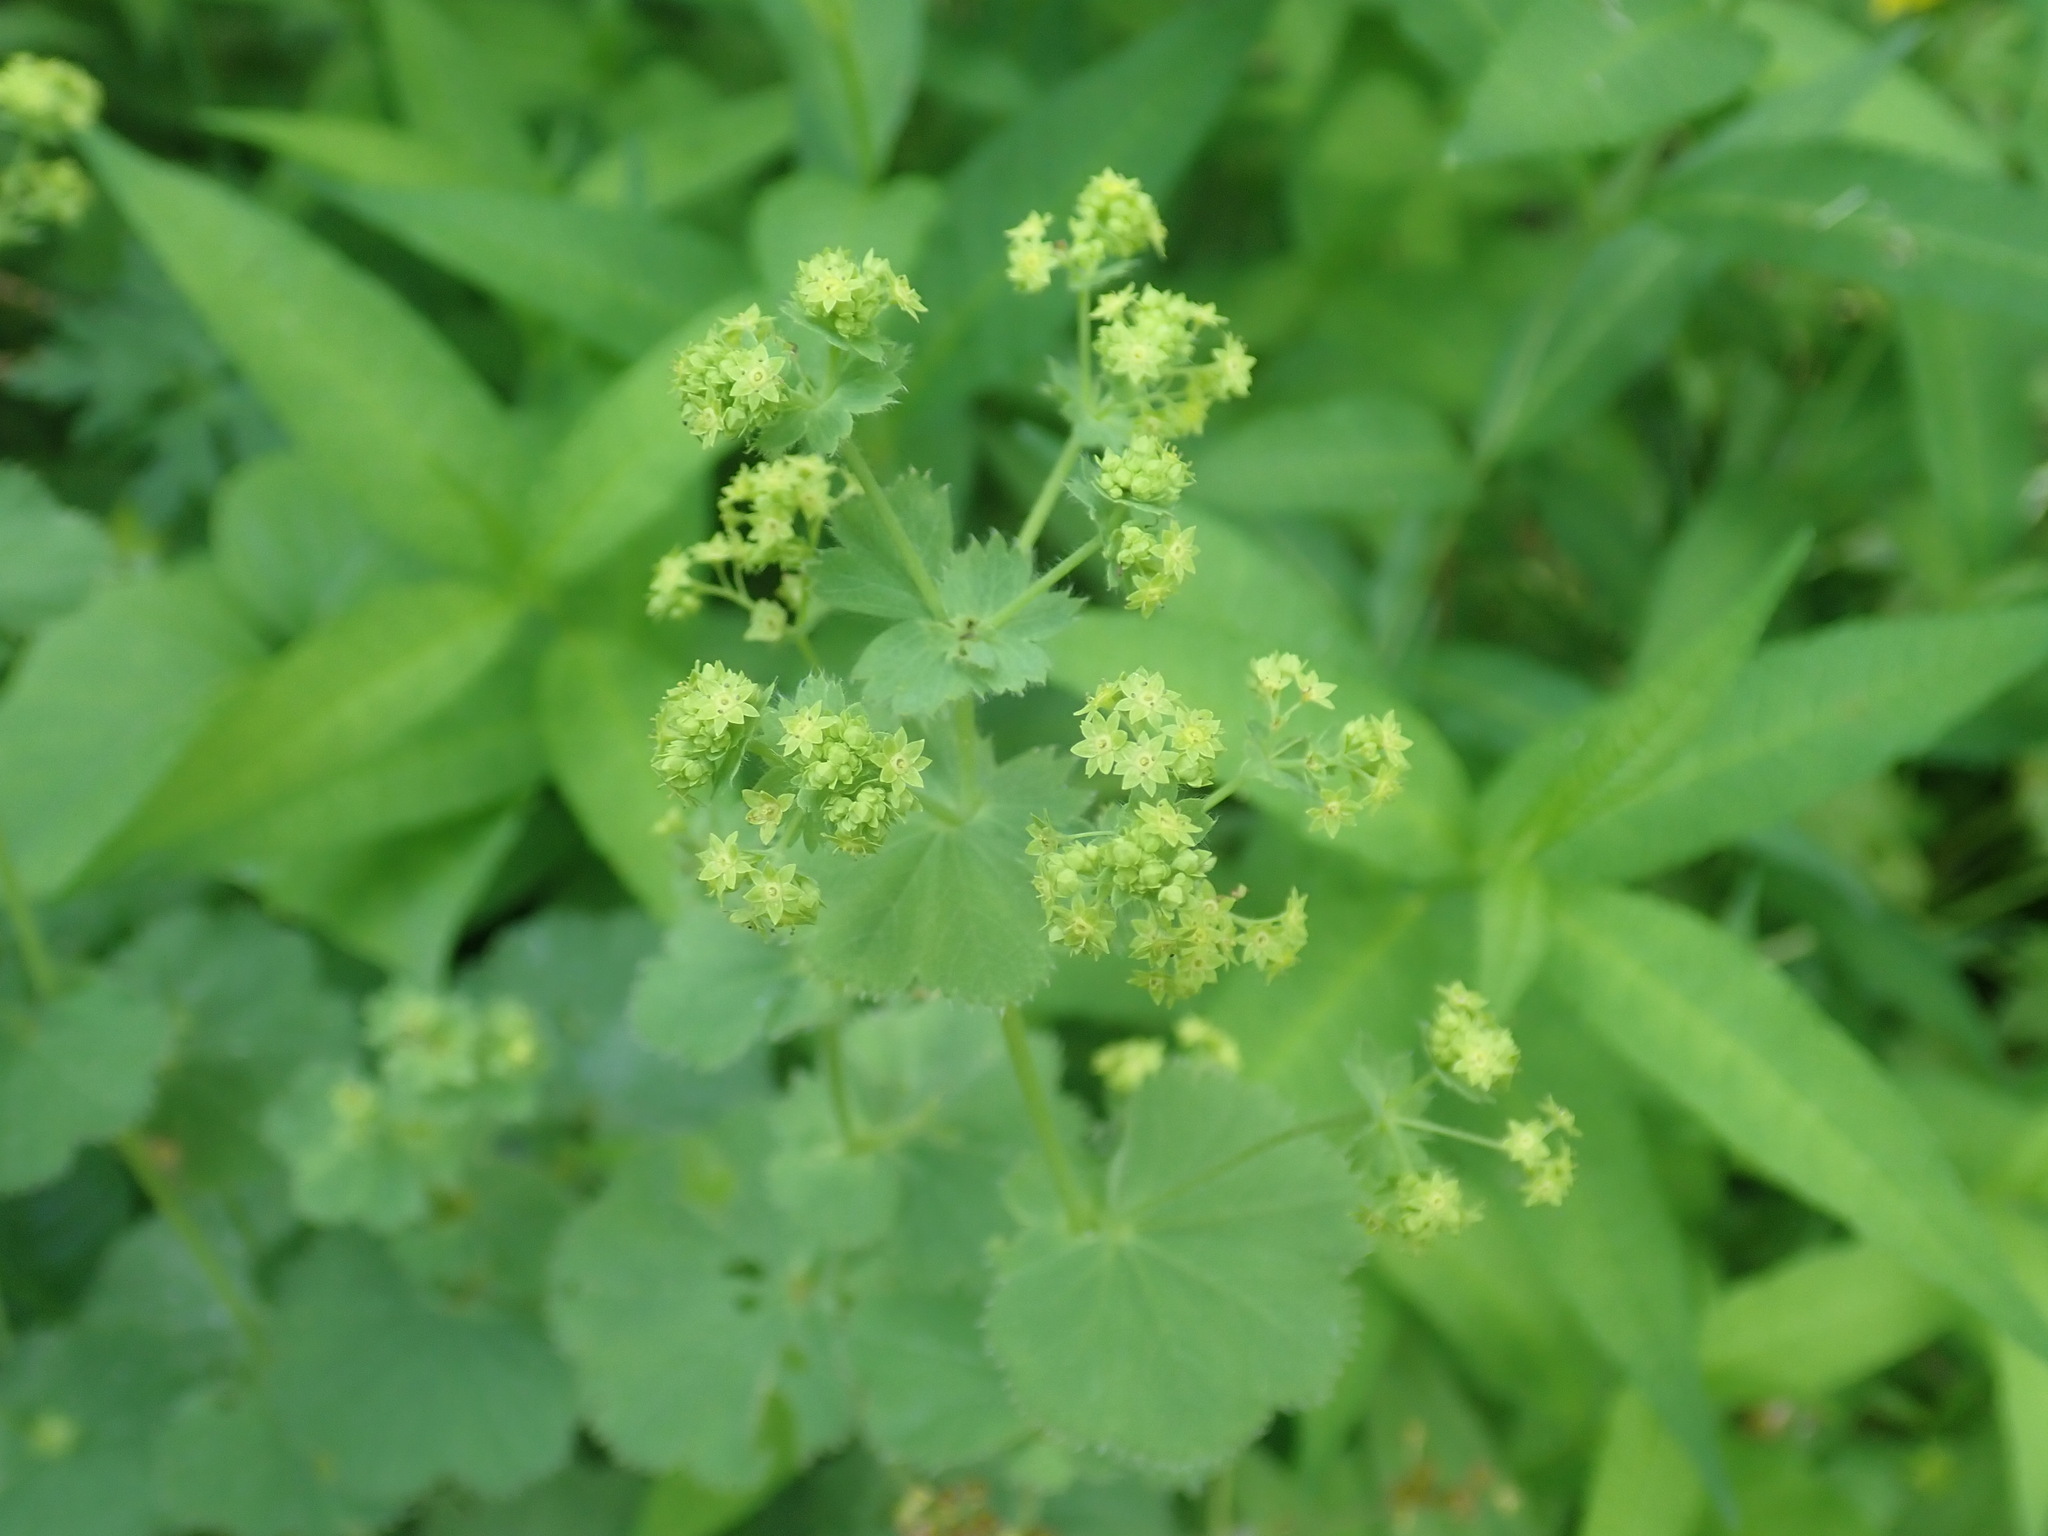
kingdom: Plantae
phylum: Tracheophyta
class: Magnoliopsida
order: Rosales
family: Rosaceae
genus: Alchemilla
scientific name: Alchemilla mollis
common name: Lady's-mantle
